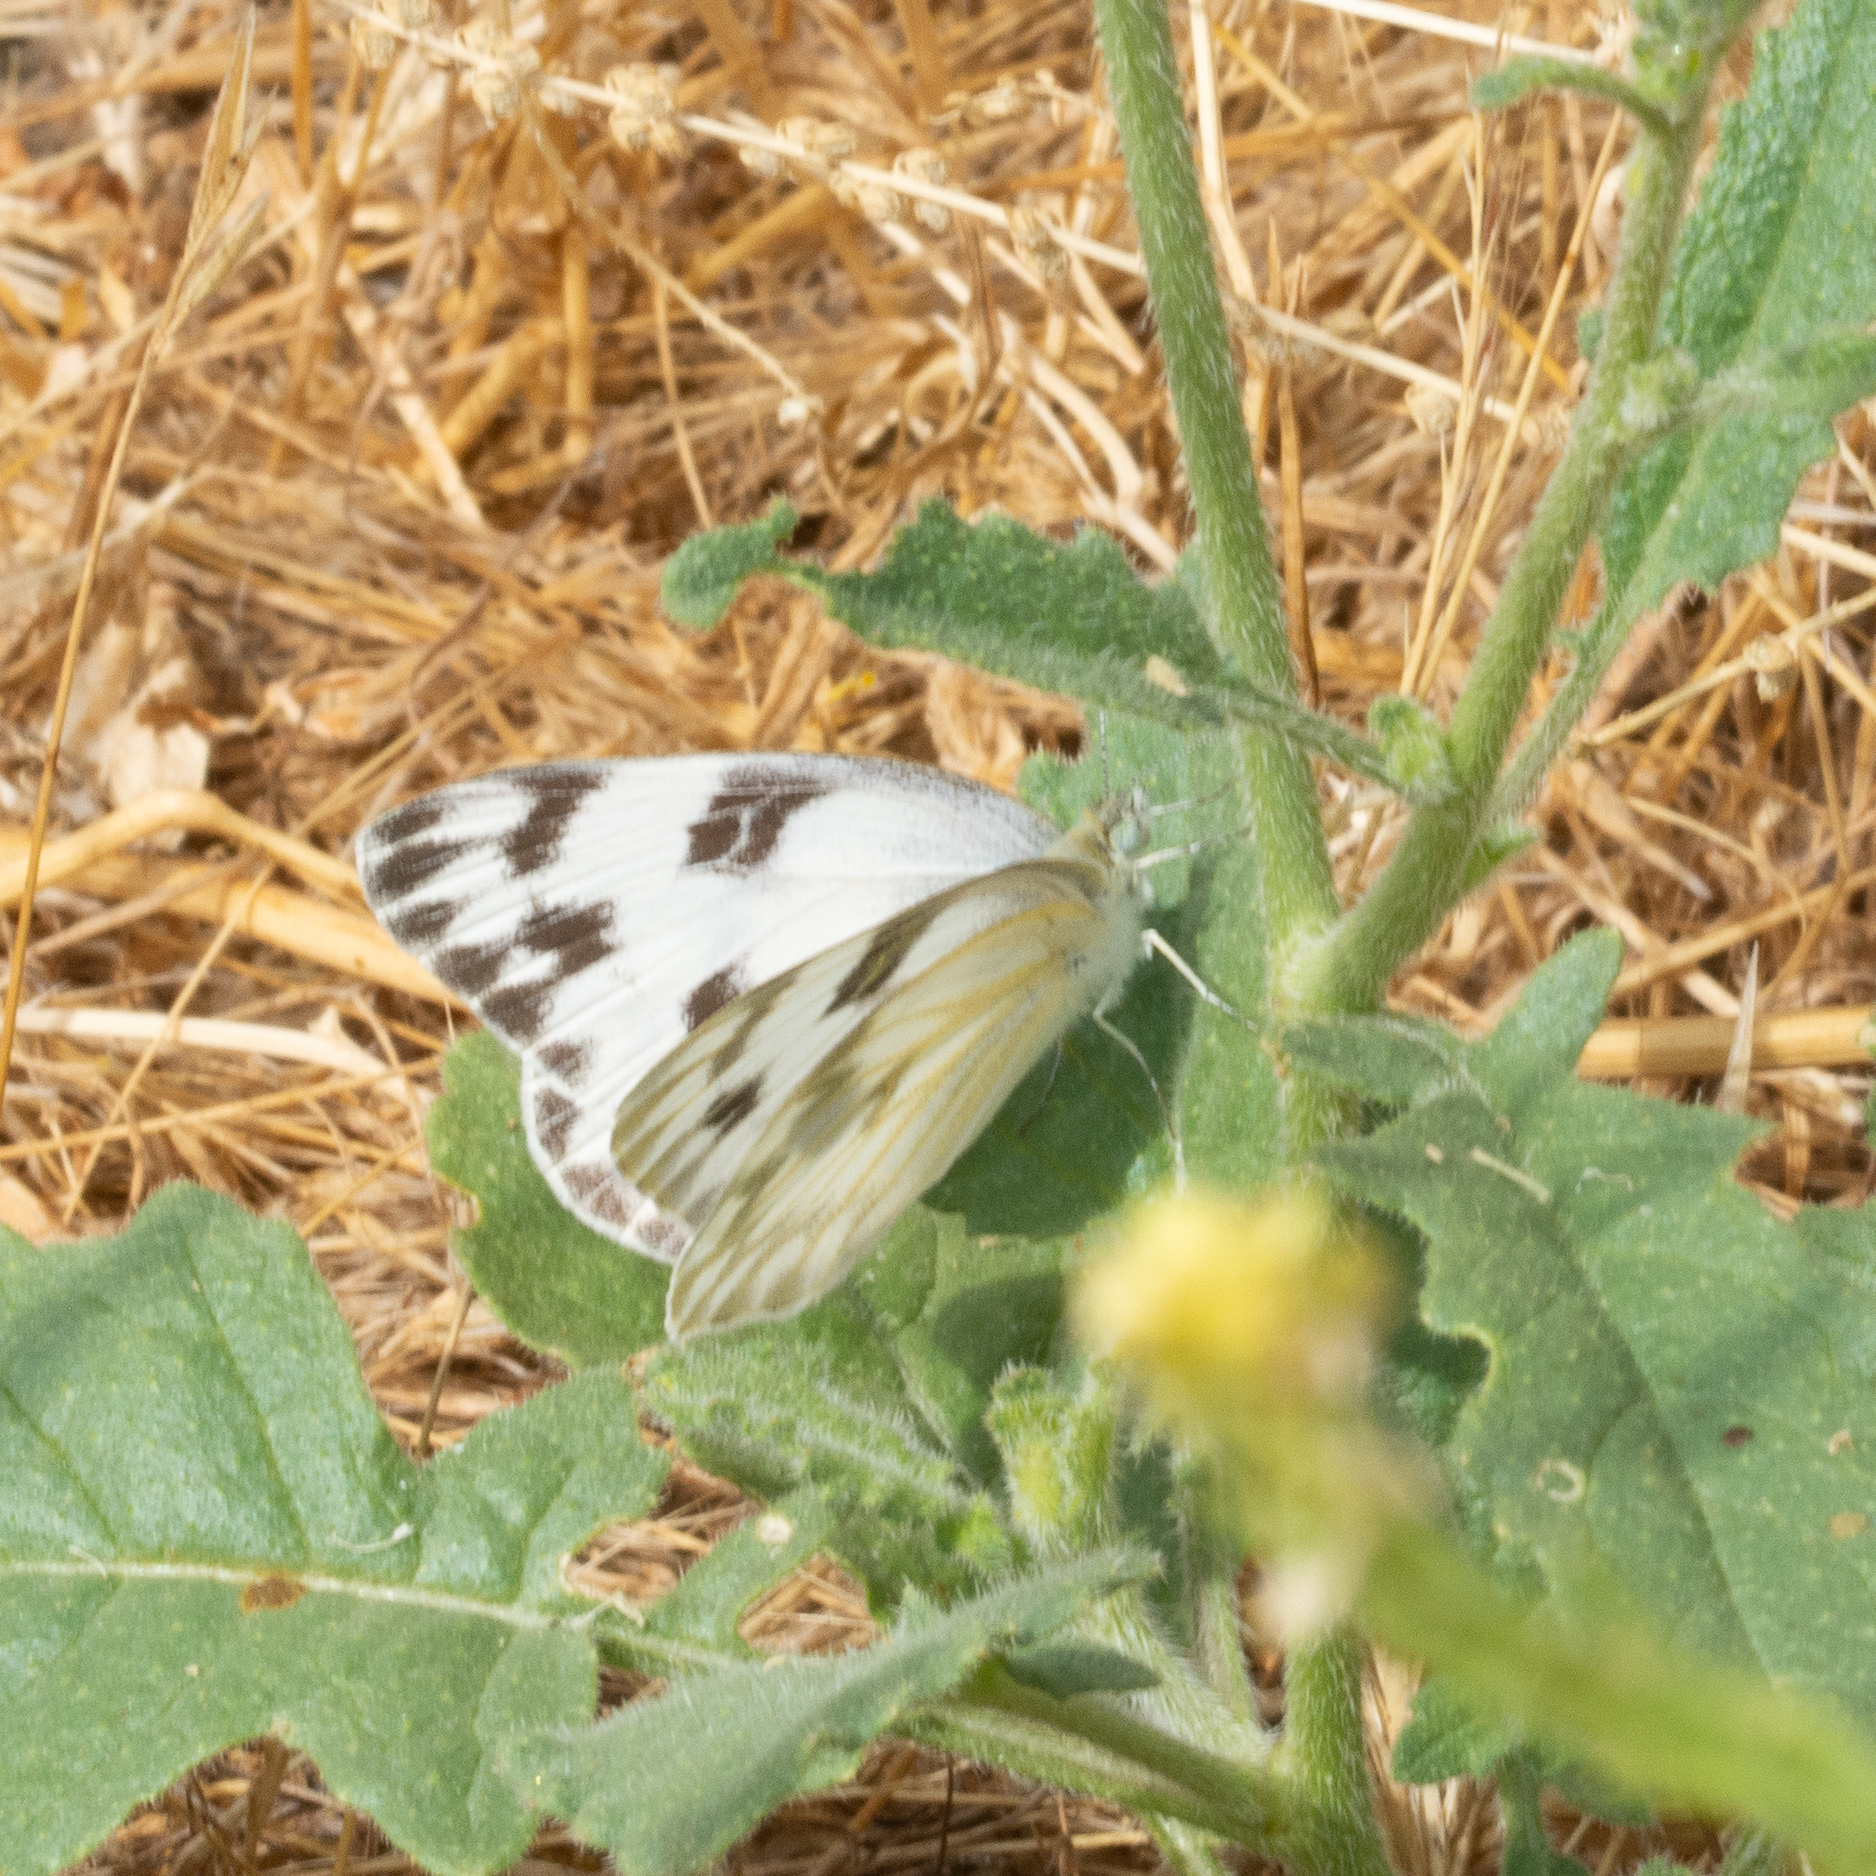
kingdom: Animalia
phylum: Arthropoda
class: Insecta
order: Lepidoptera
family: Pieridae
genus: Pontia
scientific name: Pontia protodice
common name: Checkered white
